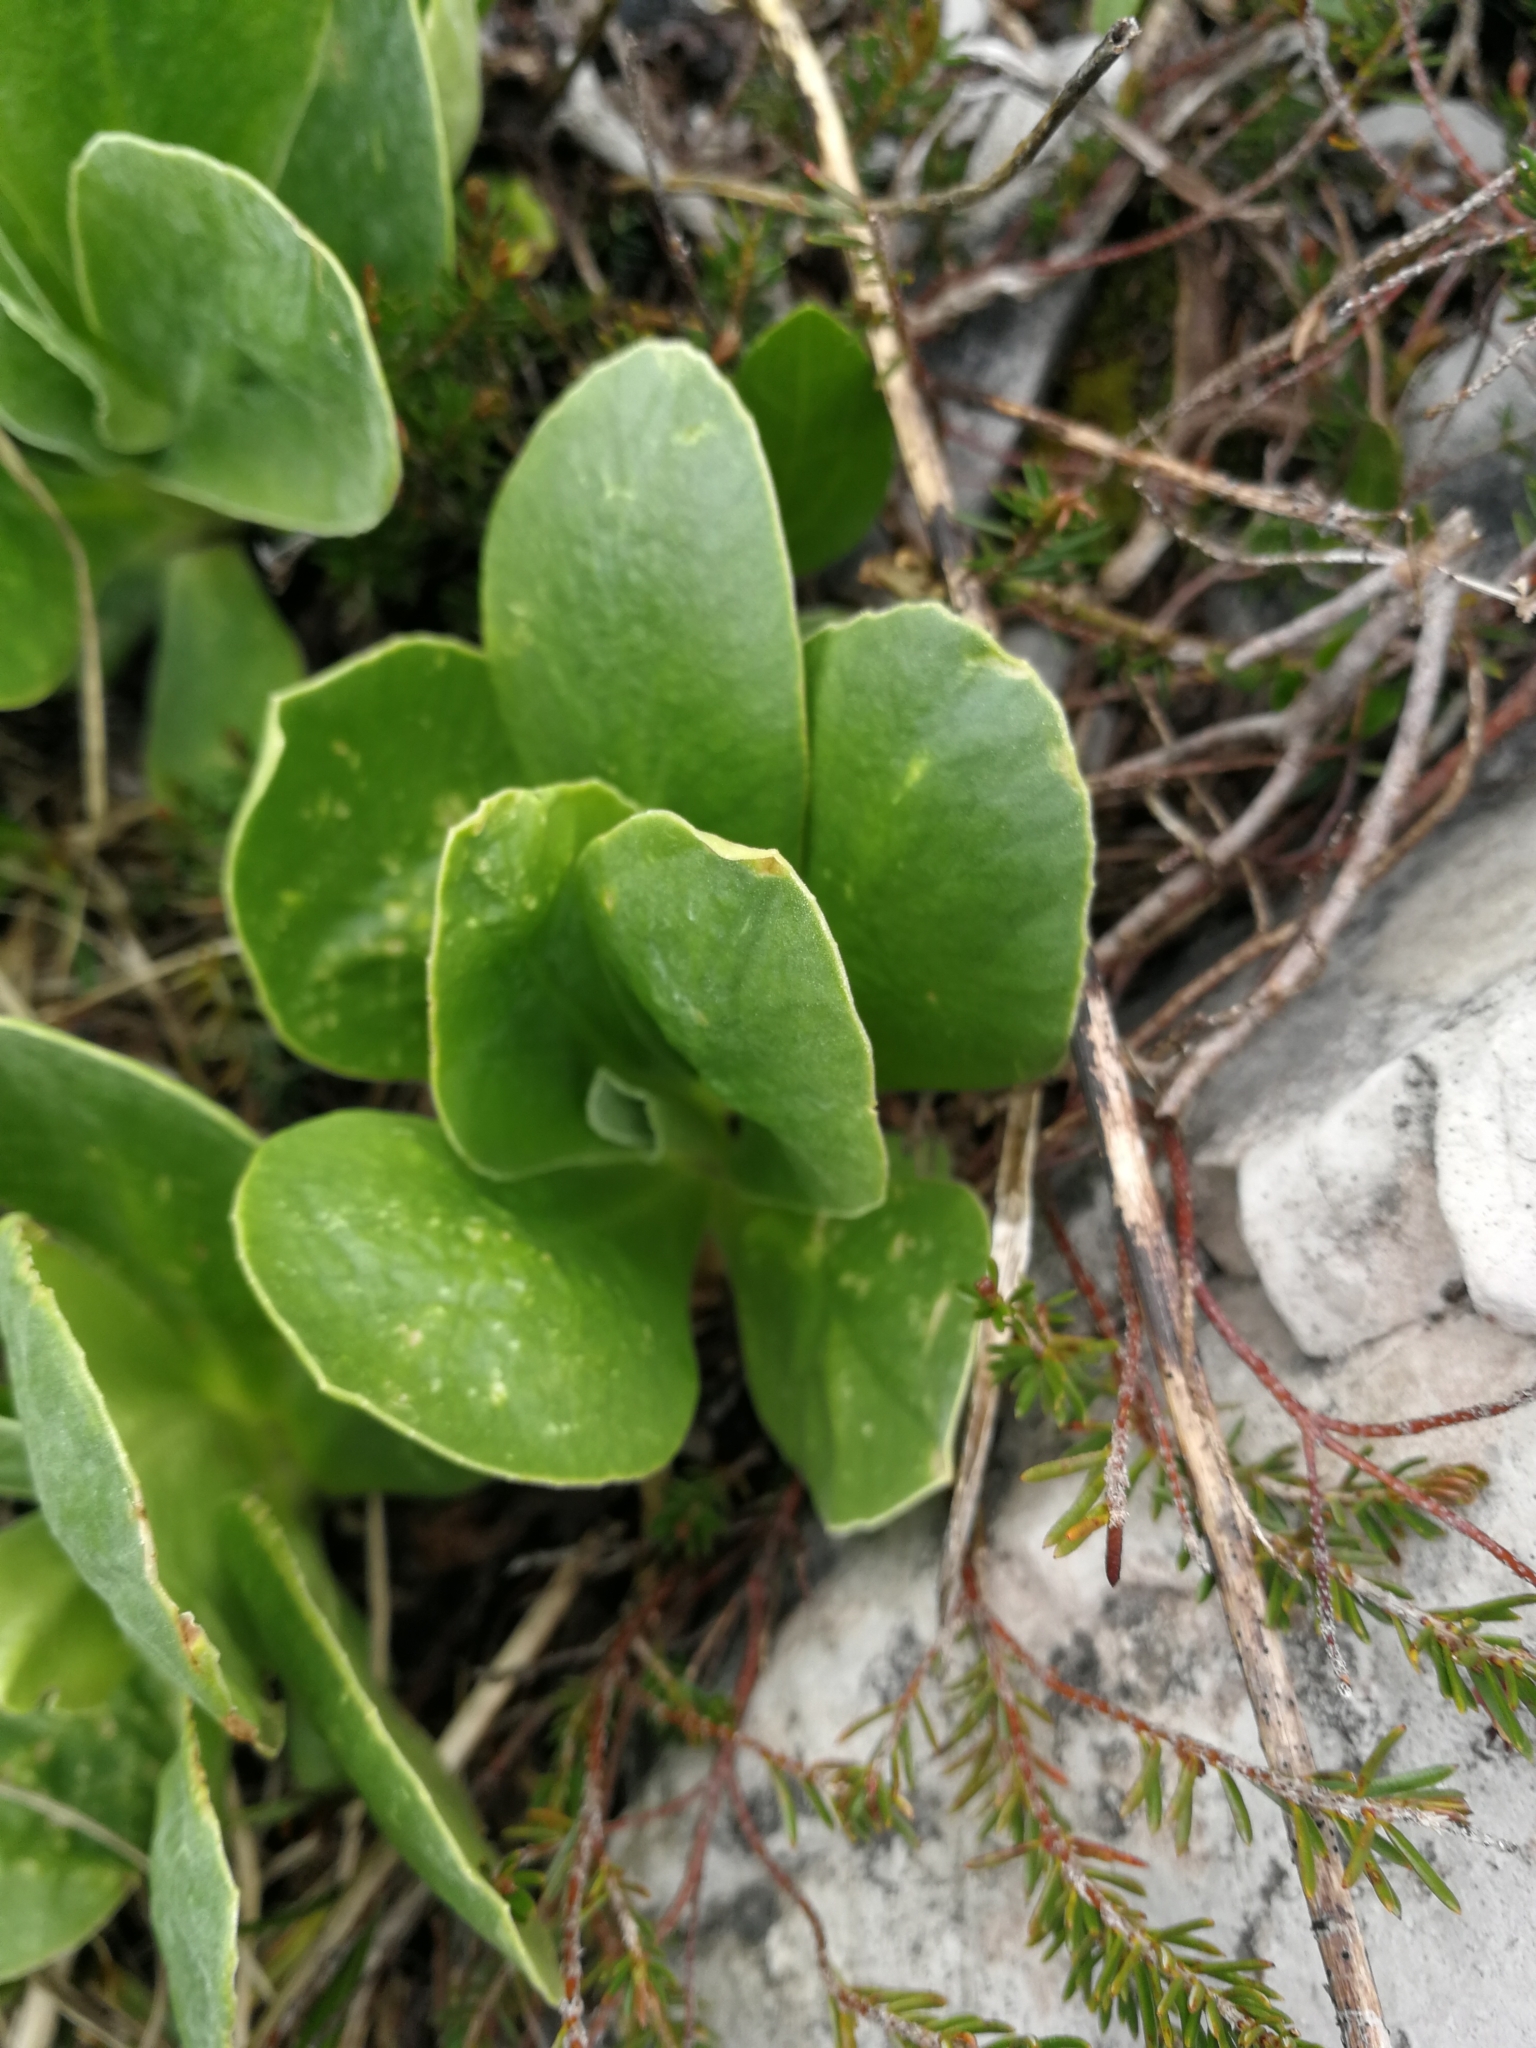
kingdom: Plantae
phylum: Tracheophyta
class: Magnoliopsida
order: Ericales
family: Primulaceae
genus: Primula
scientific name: Primula auricula
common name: Auricula
